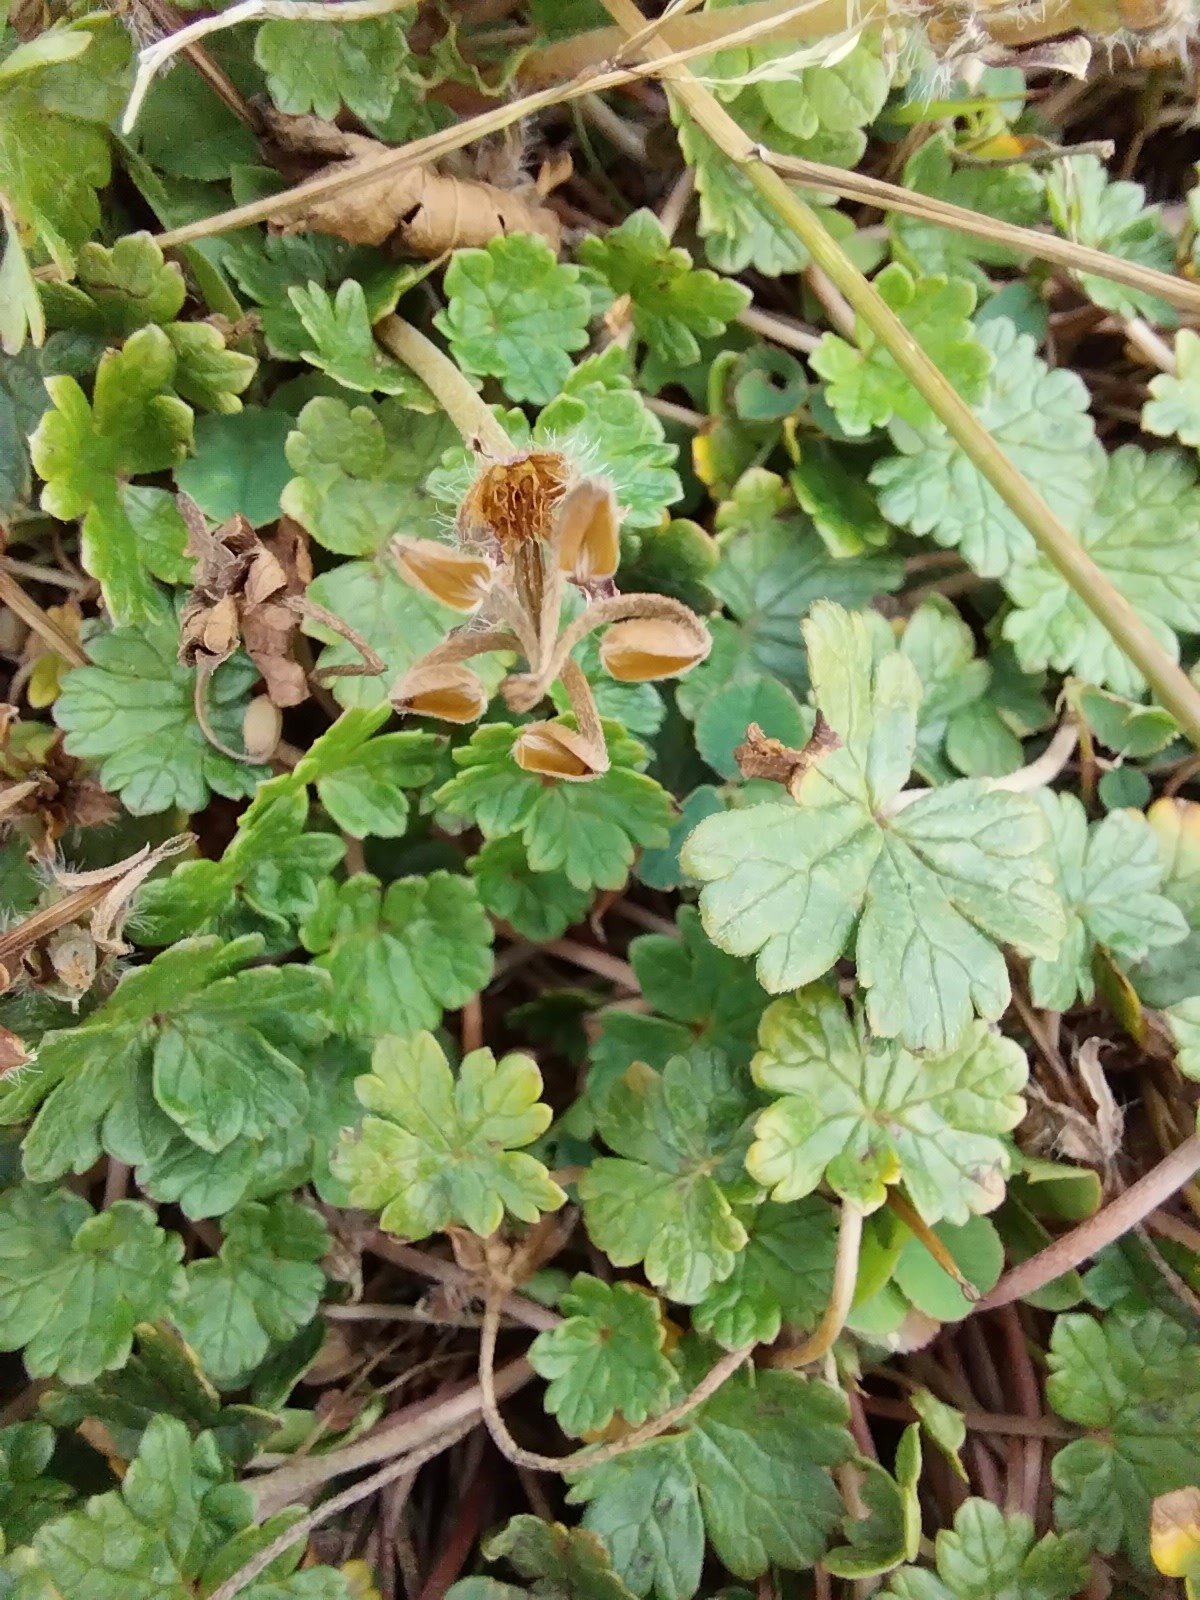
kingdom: Plantae
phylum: Tracheophyta
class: Magnoliopsida
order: Geraniales
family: Geraniaceae
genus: Geranium
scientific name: Geranium brevicaule
